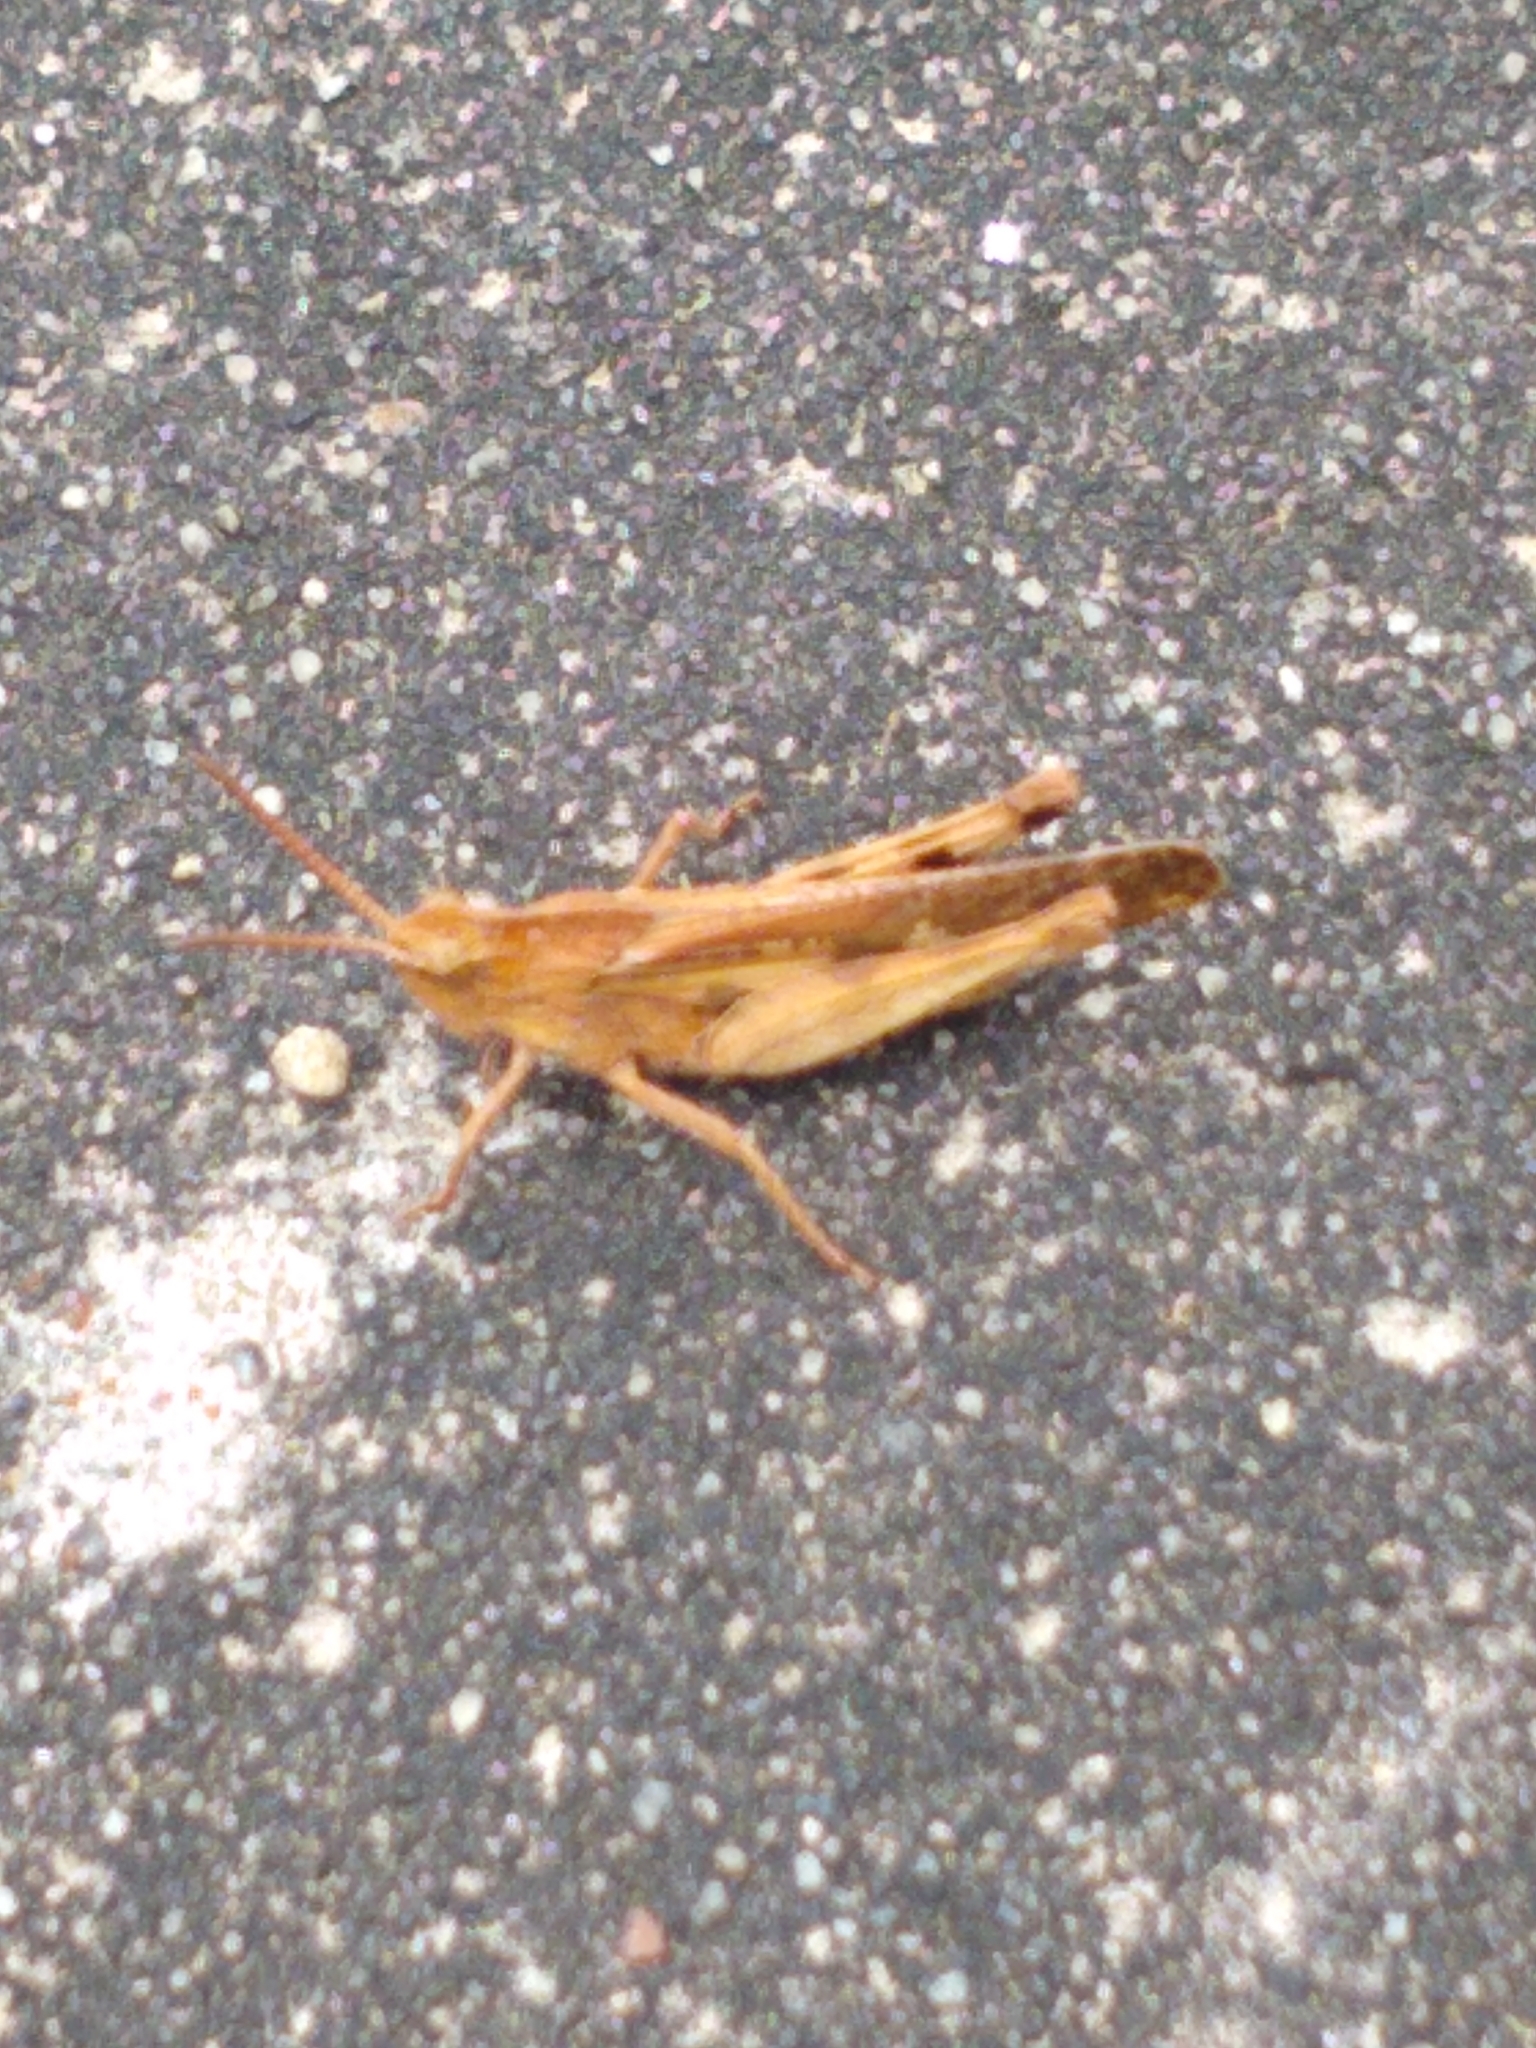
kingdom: Animalia
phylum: Arthropoda
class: Insecta
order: Orthoptera
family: Acrididae
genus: Chortophaga
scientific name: Chortophaga viridifasciata
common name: Green-striped grasshopper
